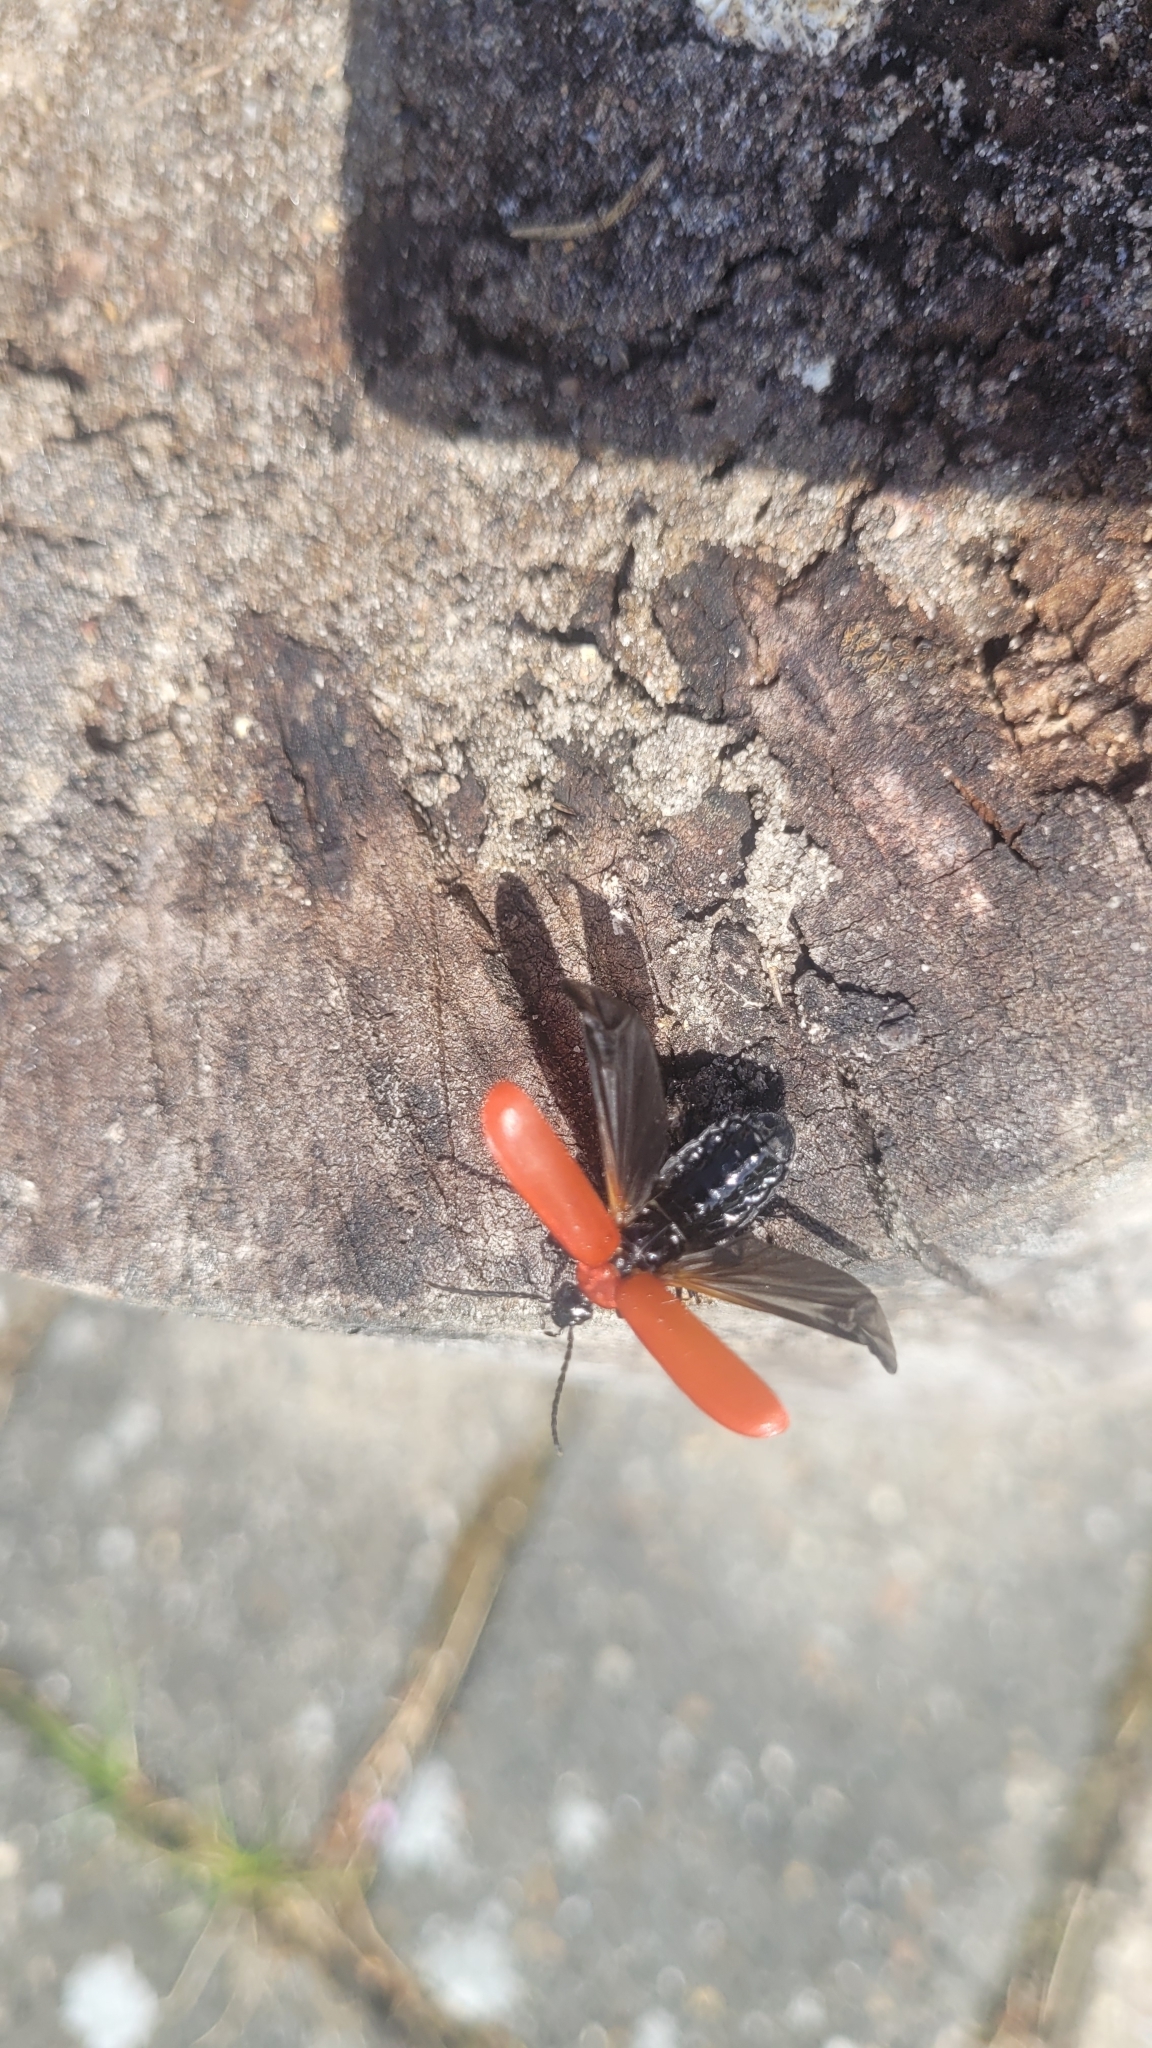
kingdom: Animalia
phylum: Arthropoda
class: Insecta
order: Coleoptera
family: Pyrochroidae
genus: Pyrochroa
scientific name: Pyrochroa coccinea
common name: Black-headed cardinal beetle
